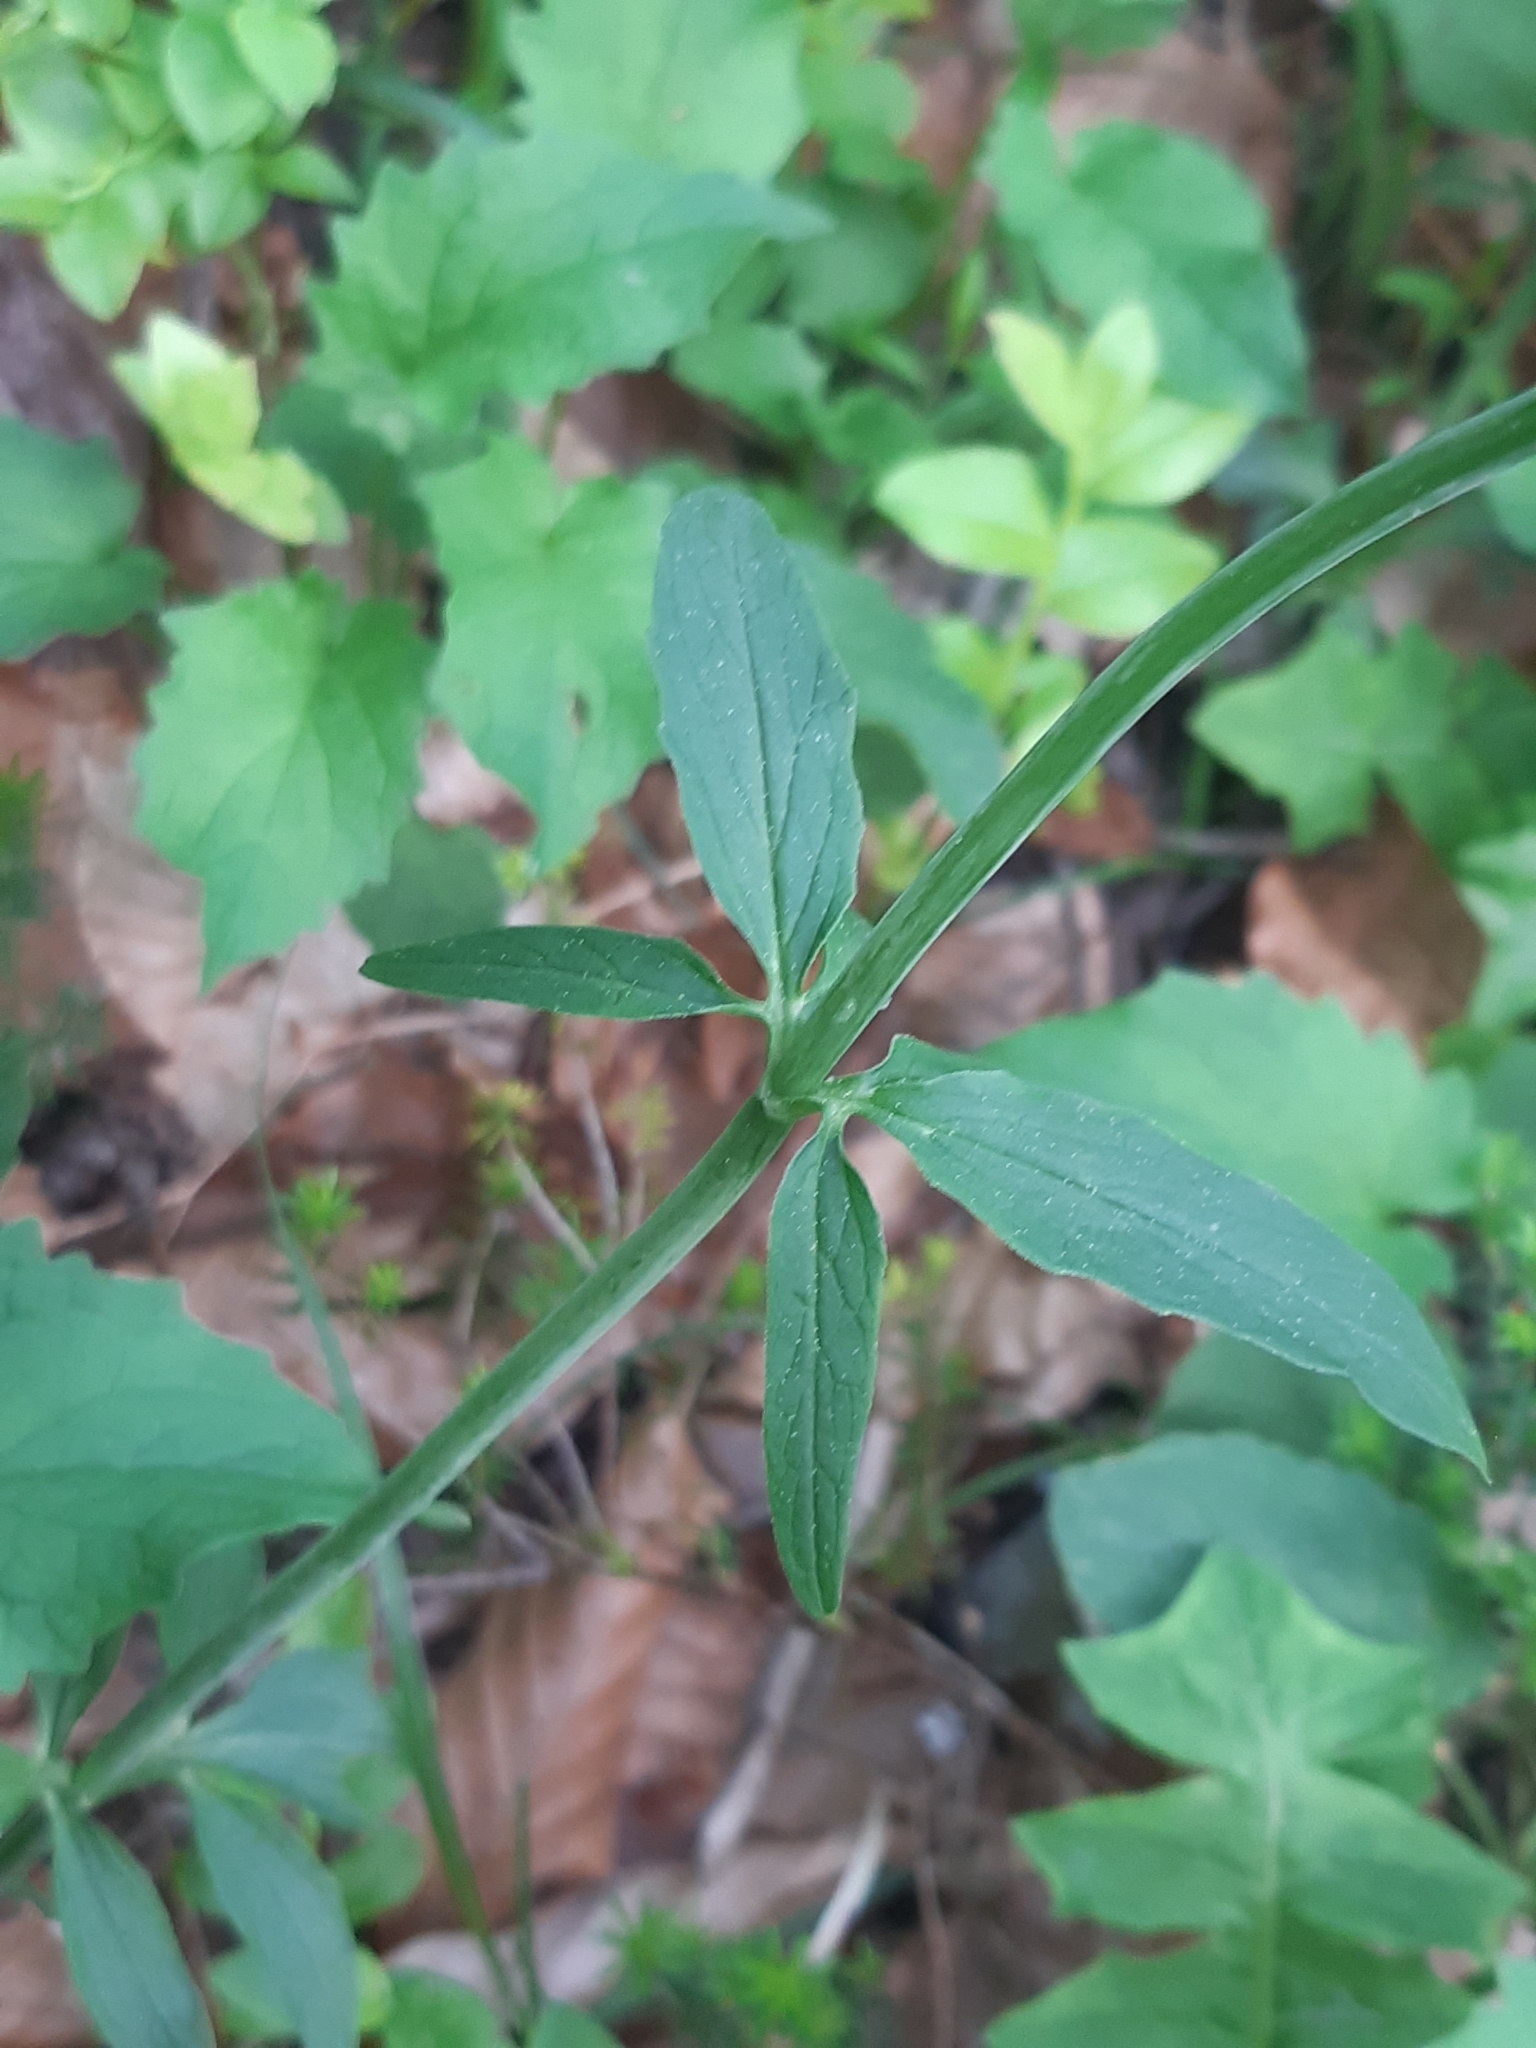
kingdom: Plantae
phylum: Tracheophyta
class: Magnoliopsida
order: Dipsacales
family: Caprifoliaceae
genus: Valeriana
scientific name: Valeriana tripteris
